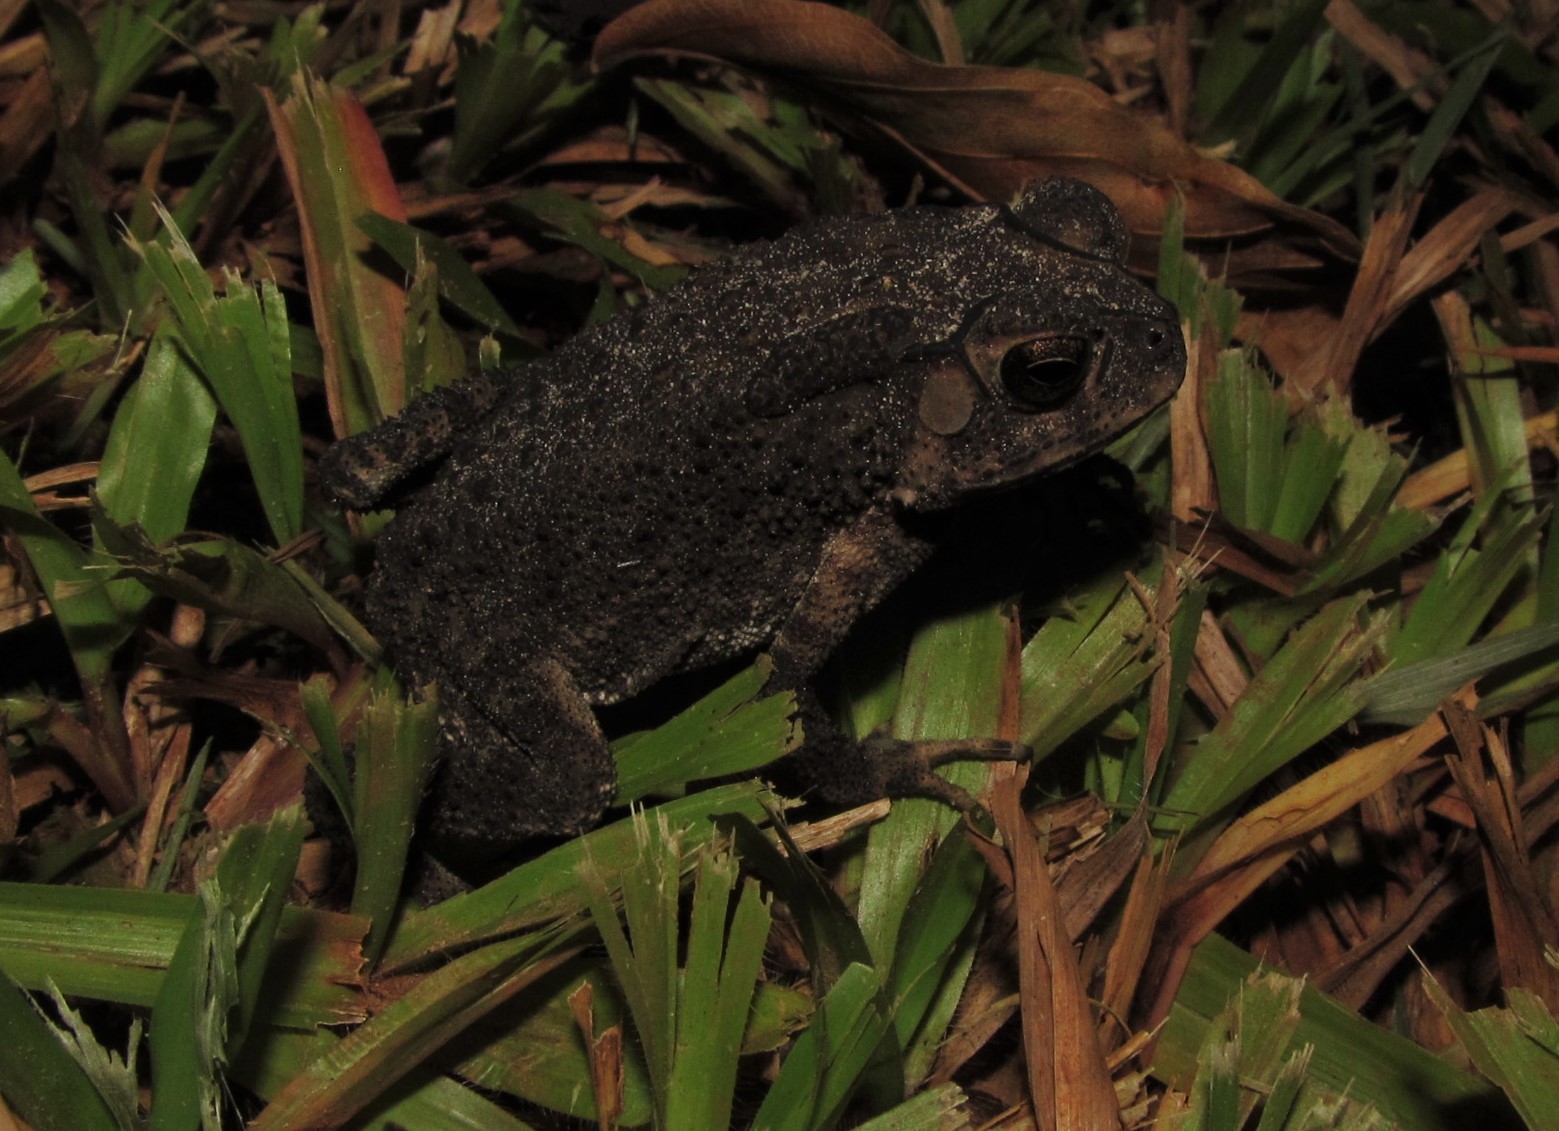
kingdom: Animalia
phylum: Chordata
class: Amphibia
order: Anura
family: Bufonidae
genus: Duttaphrynus
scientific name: Duttaphrynus melanostictus
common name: Common sunda toad
